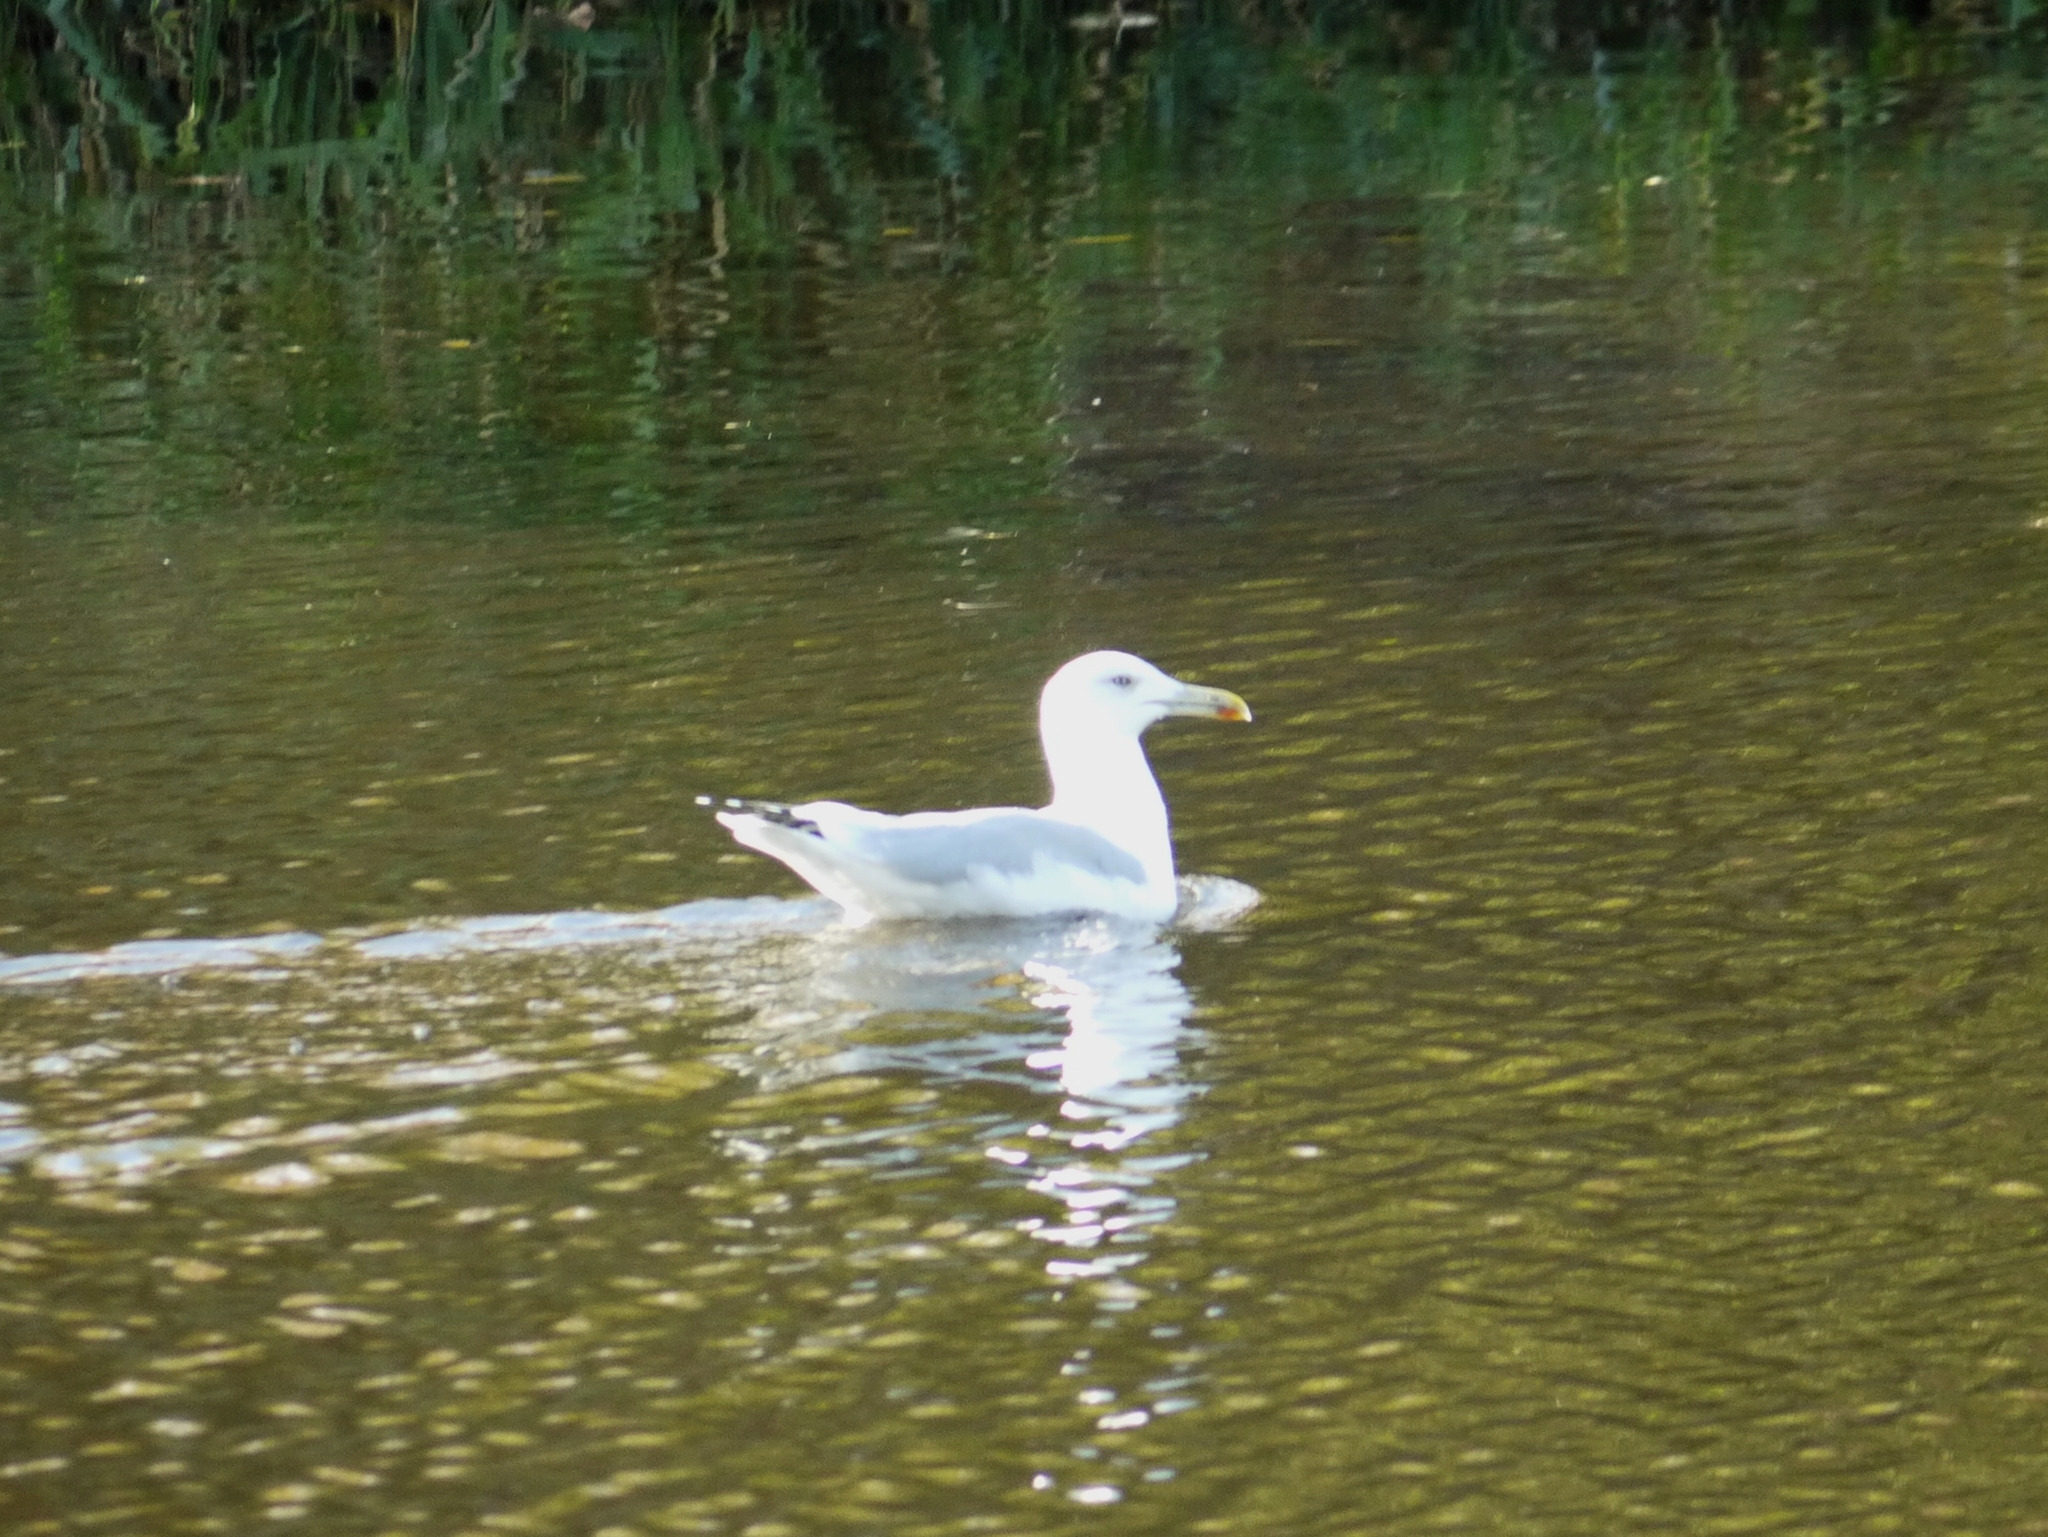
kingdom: Animalia
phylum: Chordata
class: Aves
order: Charadriiformes
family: Laridae
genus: Larus
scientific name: Larus cachinnans
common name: Caspian gull
